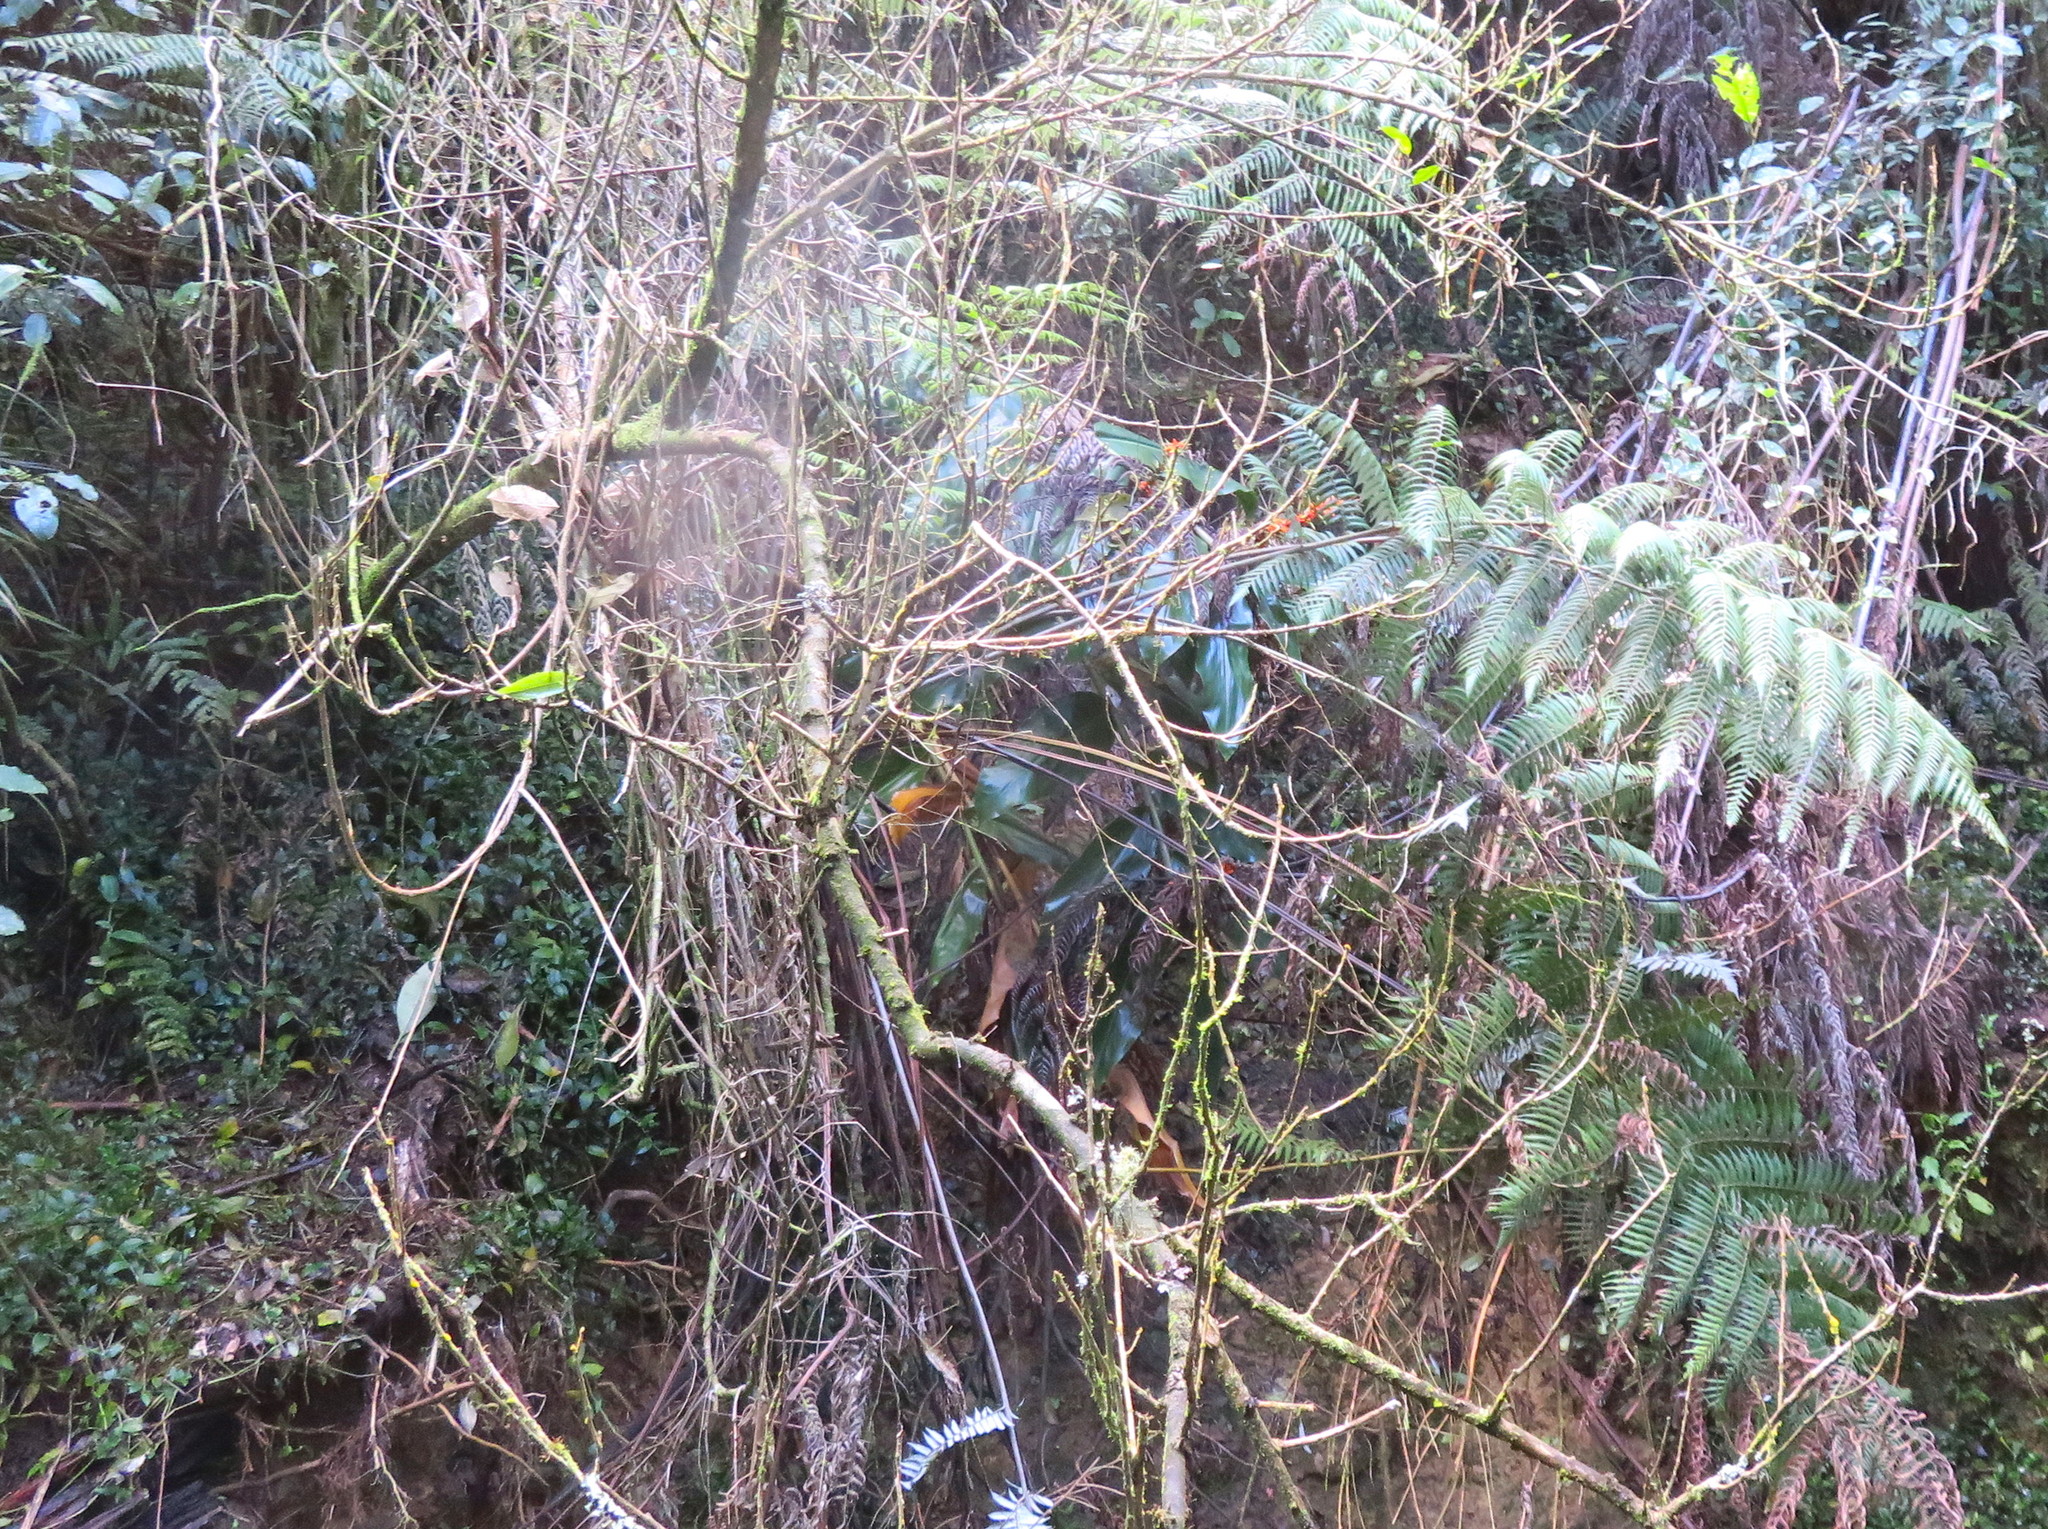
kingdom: Plantae
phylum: Tracheophyta
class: Liliopsida
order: Zingiberales
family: Zingiberaceae
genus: Hedychium
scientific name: Hedychium gardnerianum
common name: Himalayan ginger
